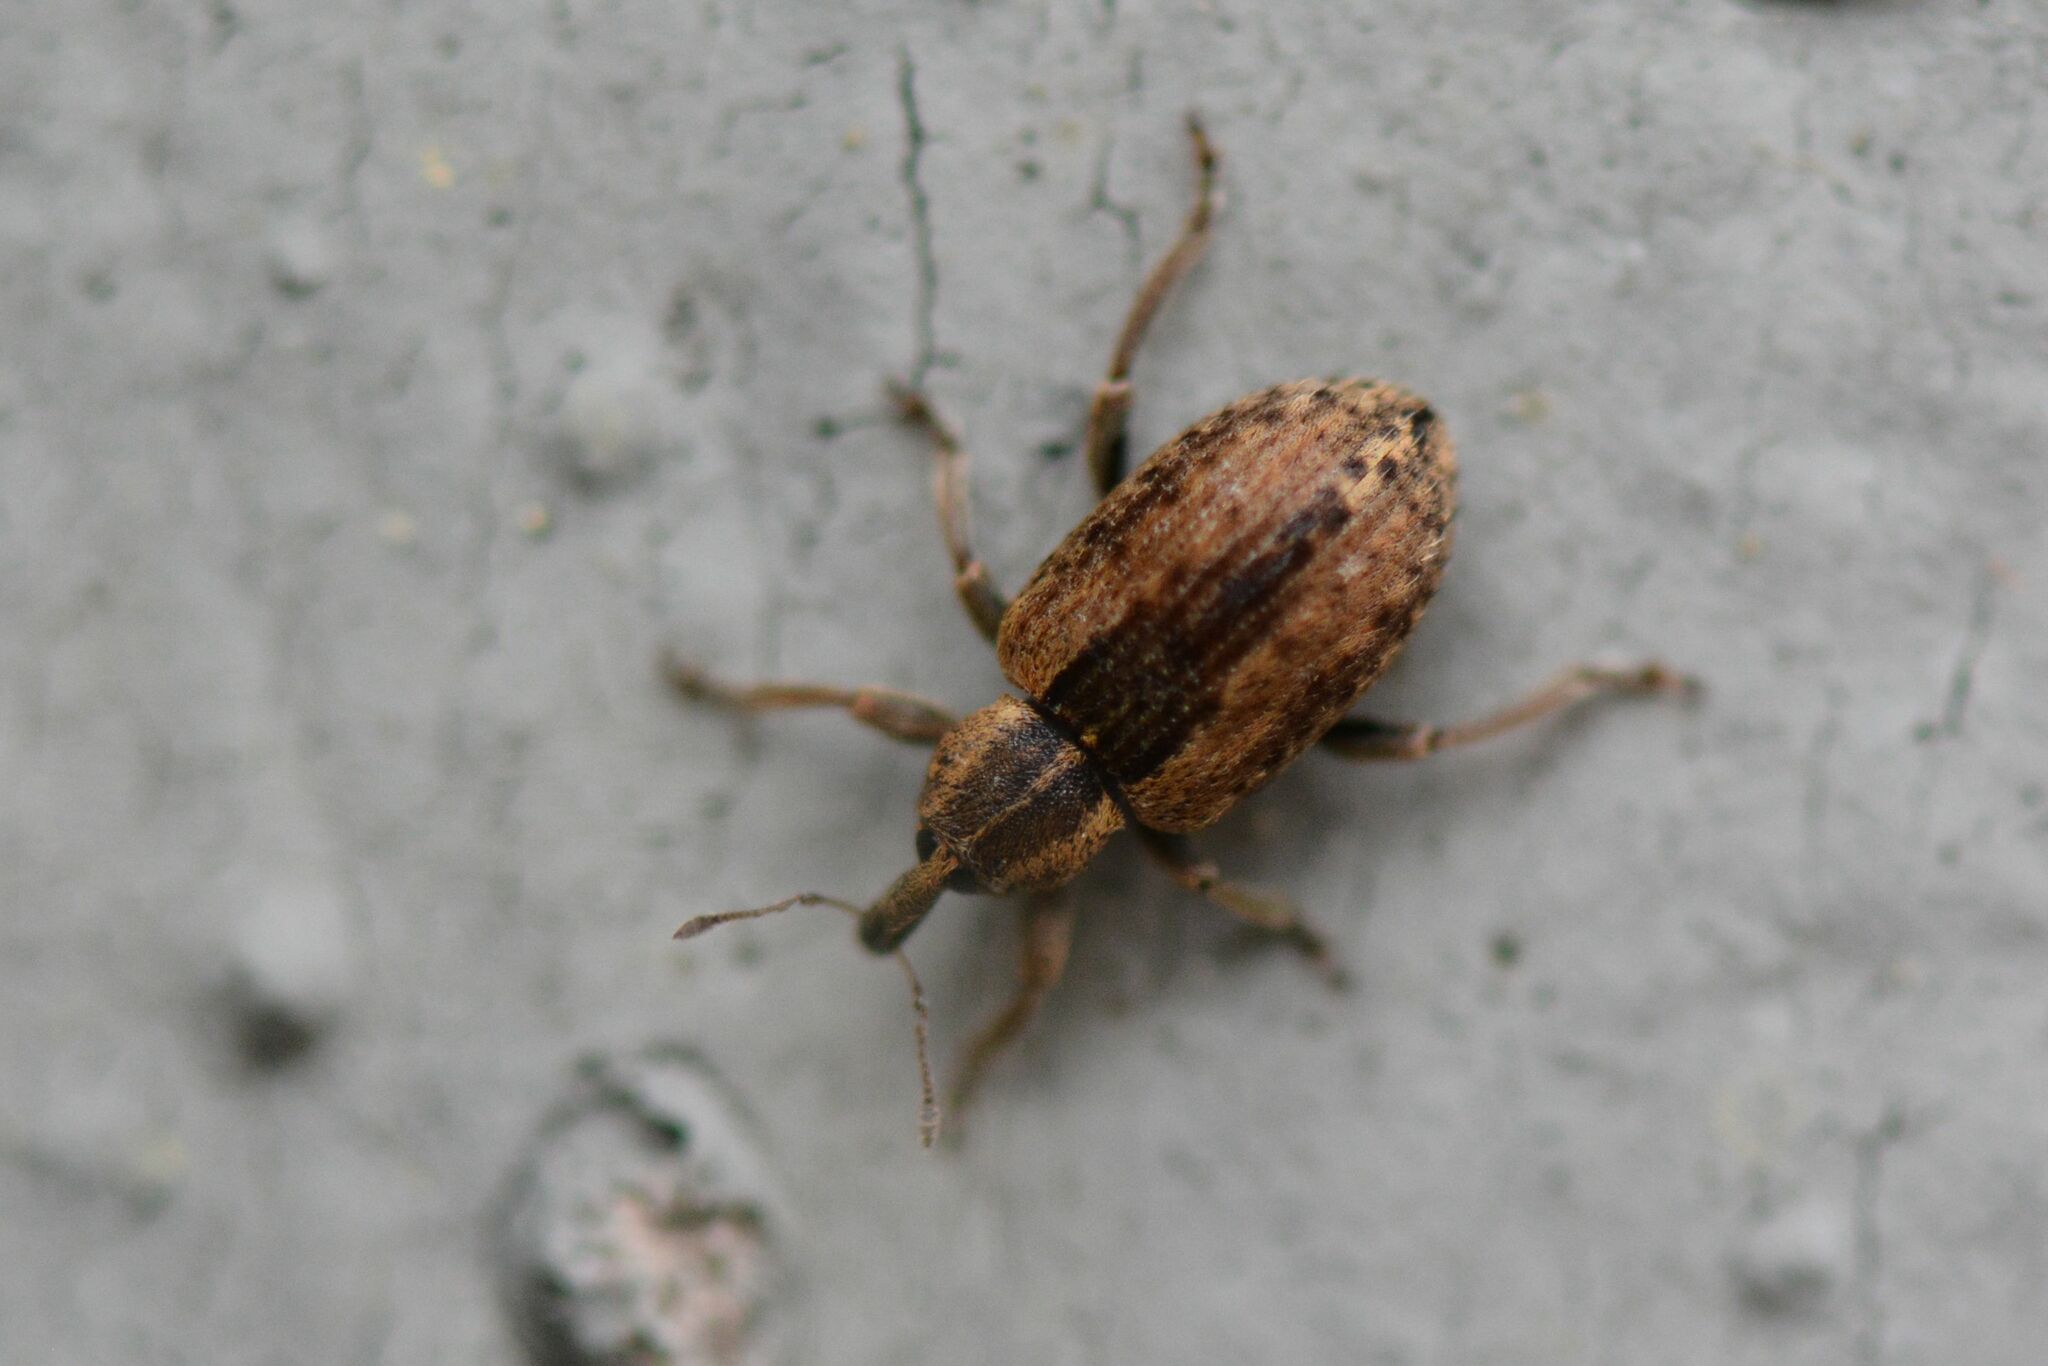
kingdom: Animalia
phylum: Arthropoda
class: Insecta
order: Coleoptera
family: Curculionidae
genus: Hypera
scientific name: Hypera postica
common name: Weevil
